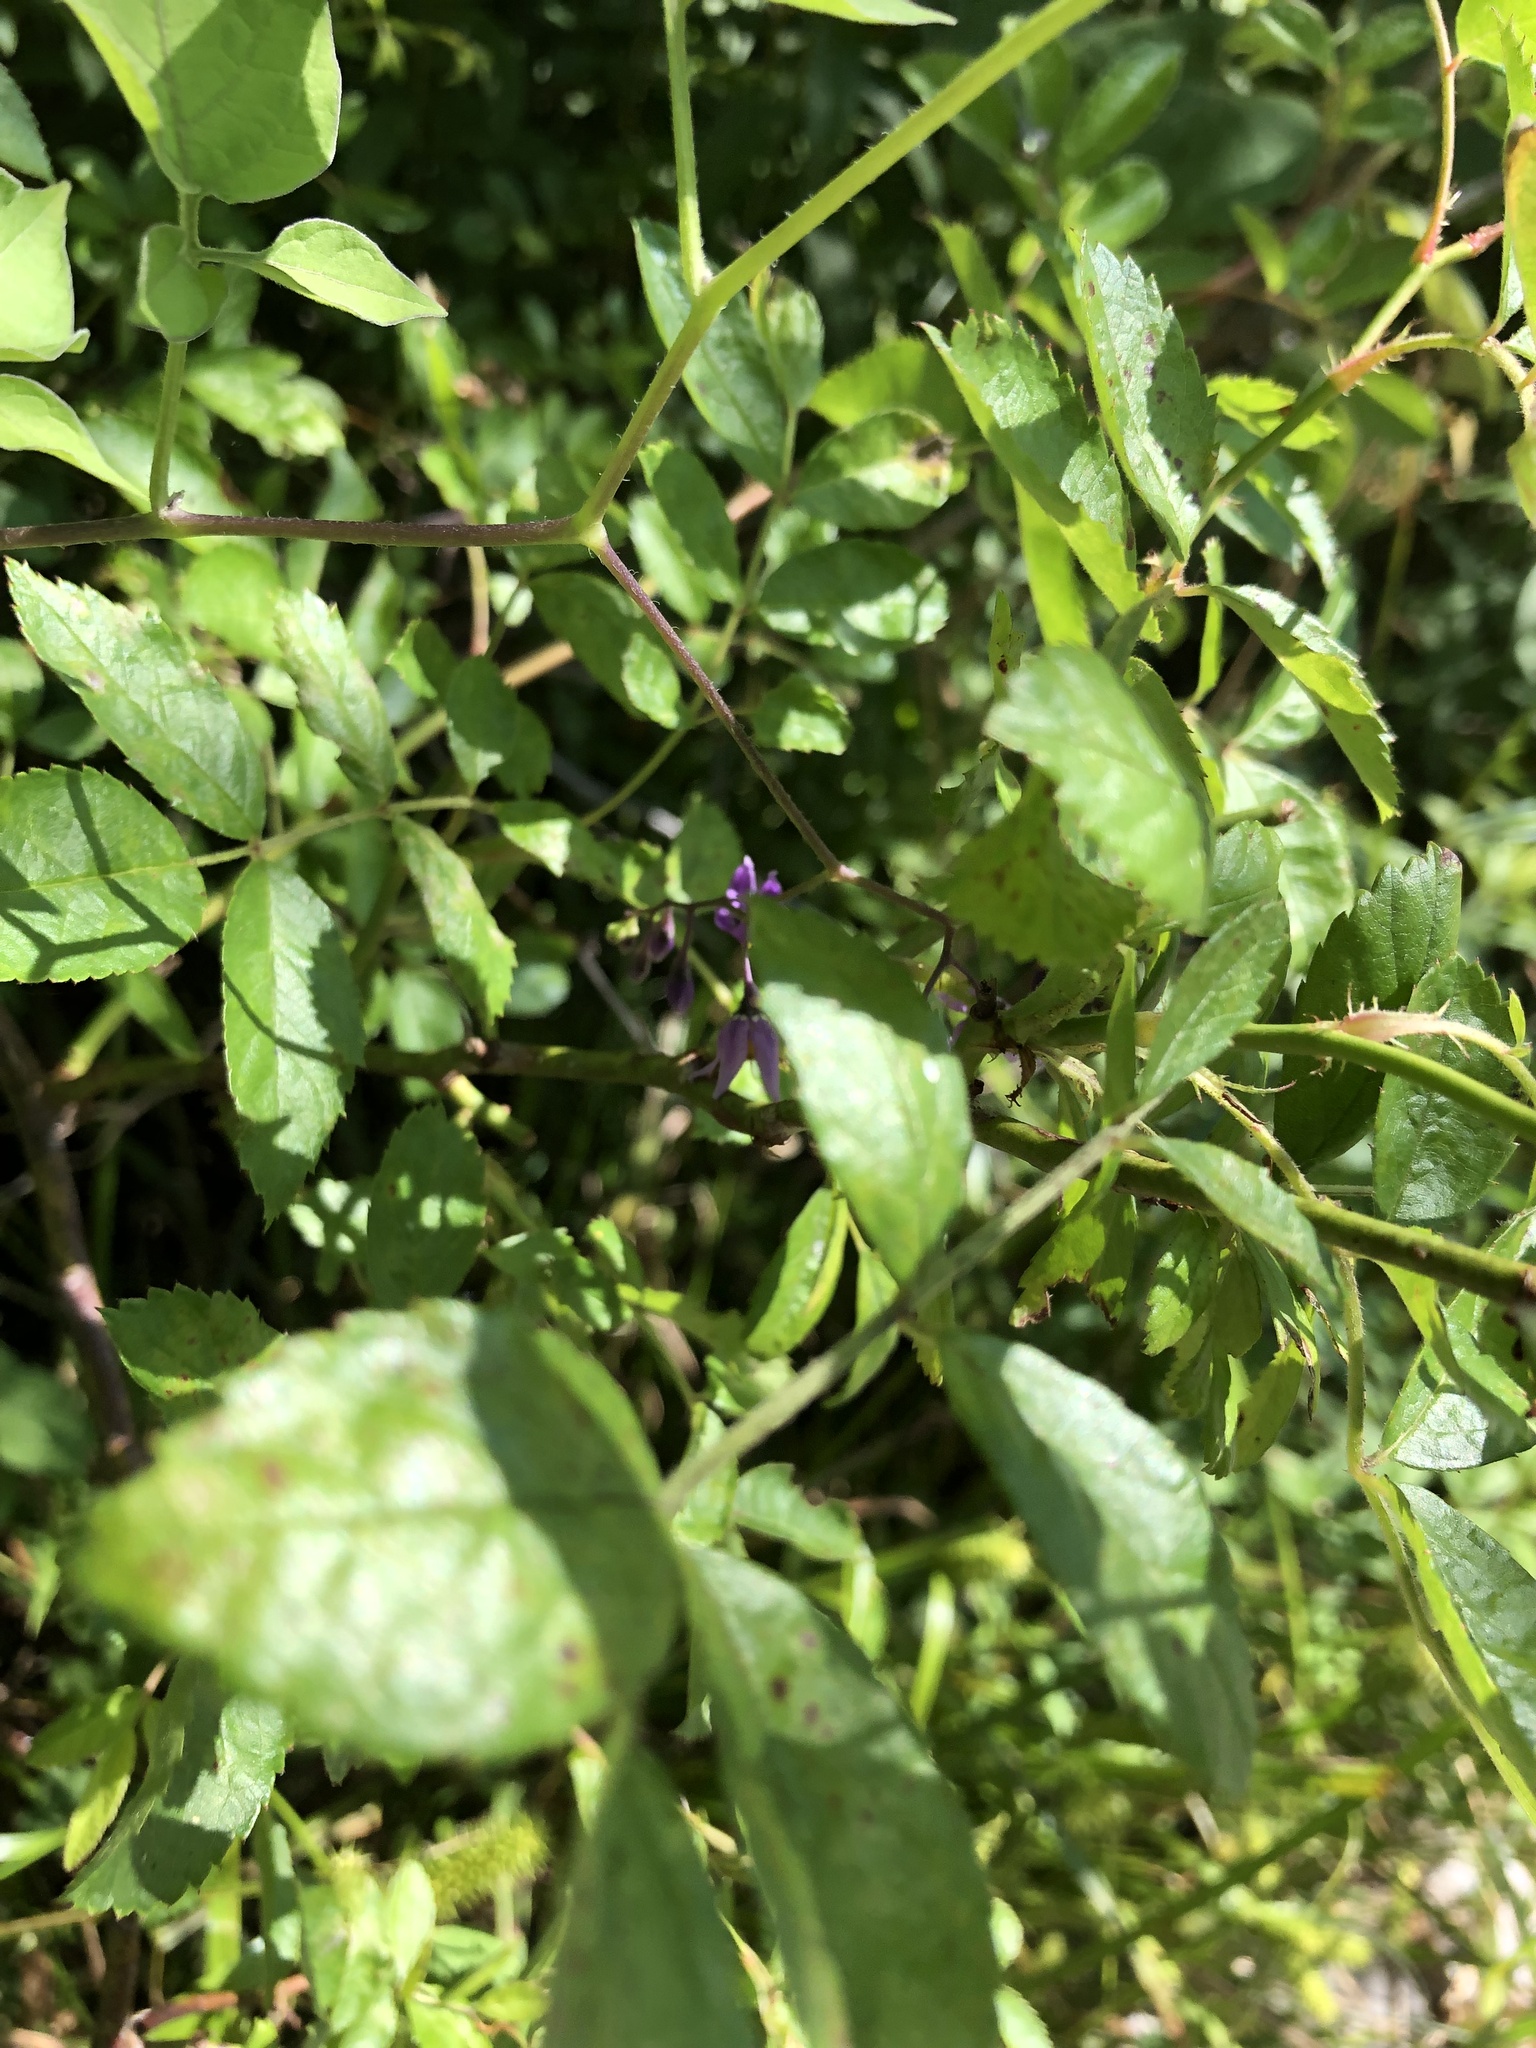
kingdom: Plantae
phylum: Tracheophyta
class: Magnoliopsida
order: Solanales
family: Solanaceae
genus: Solanum
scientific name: Solanum dulcamara
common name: Climbing nightshade
